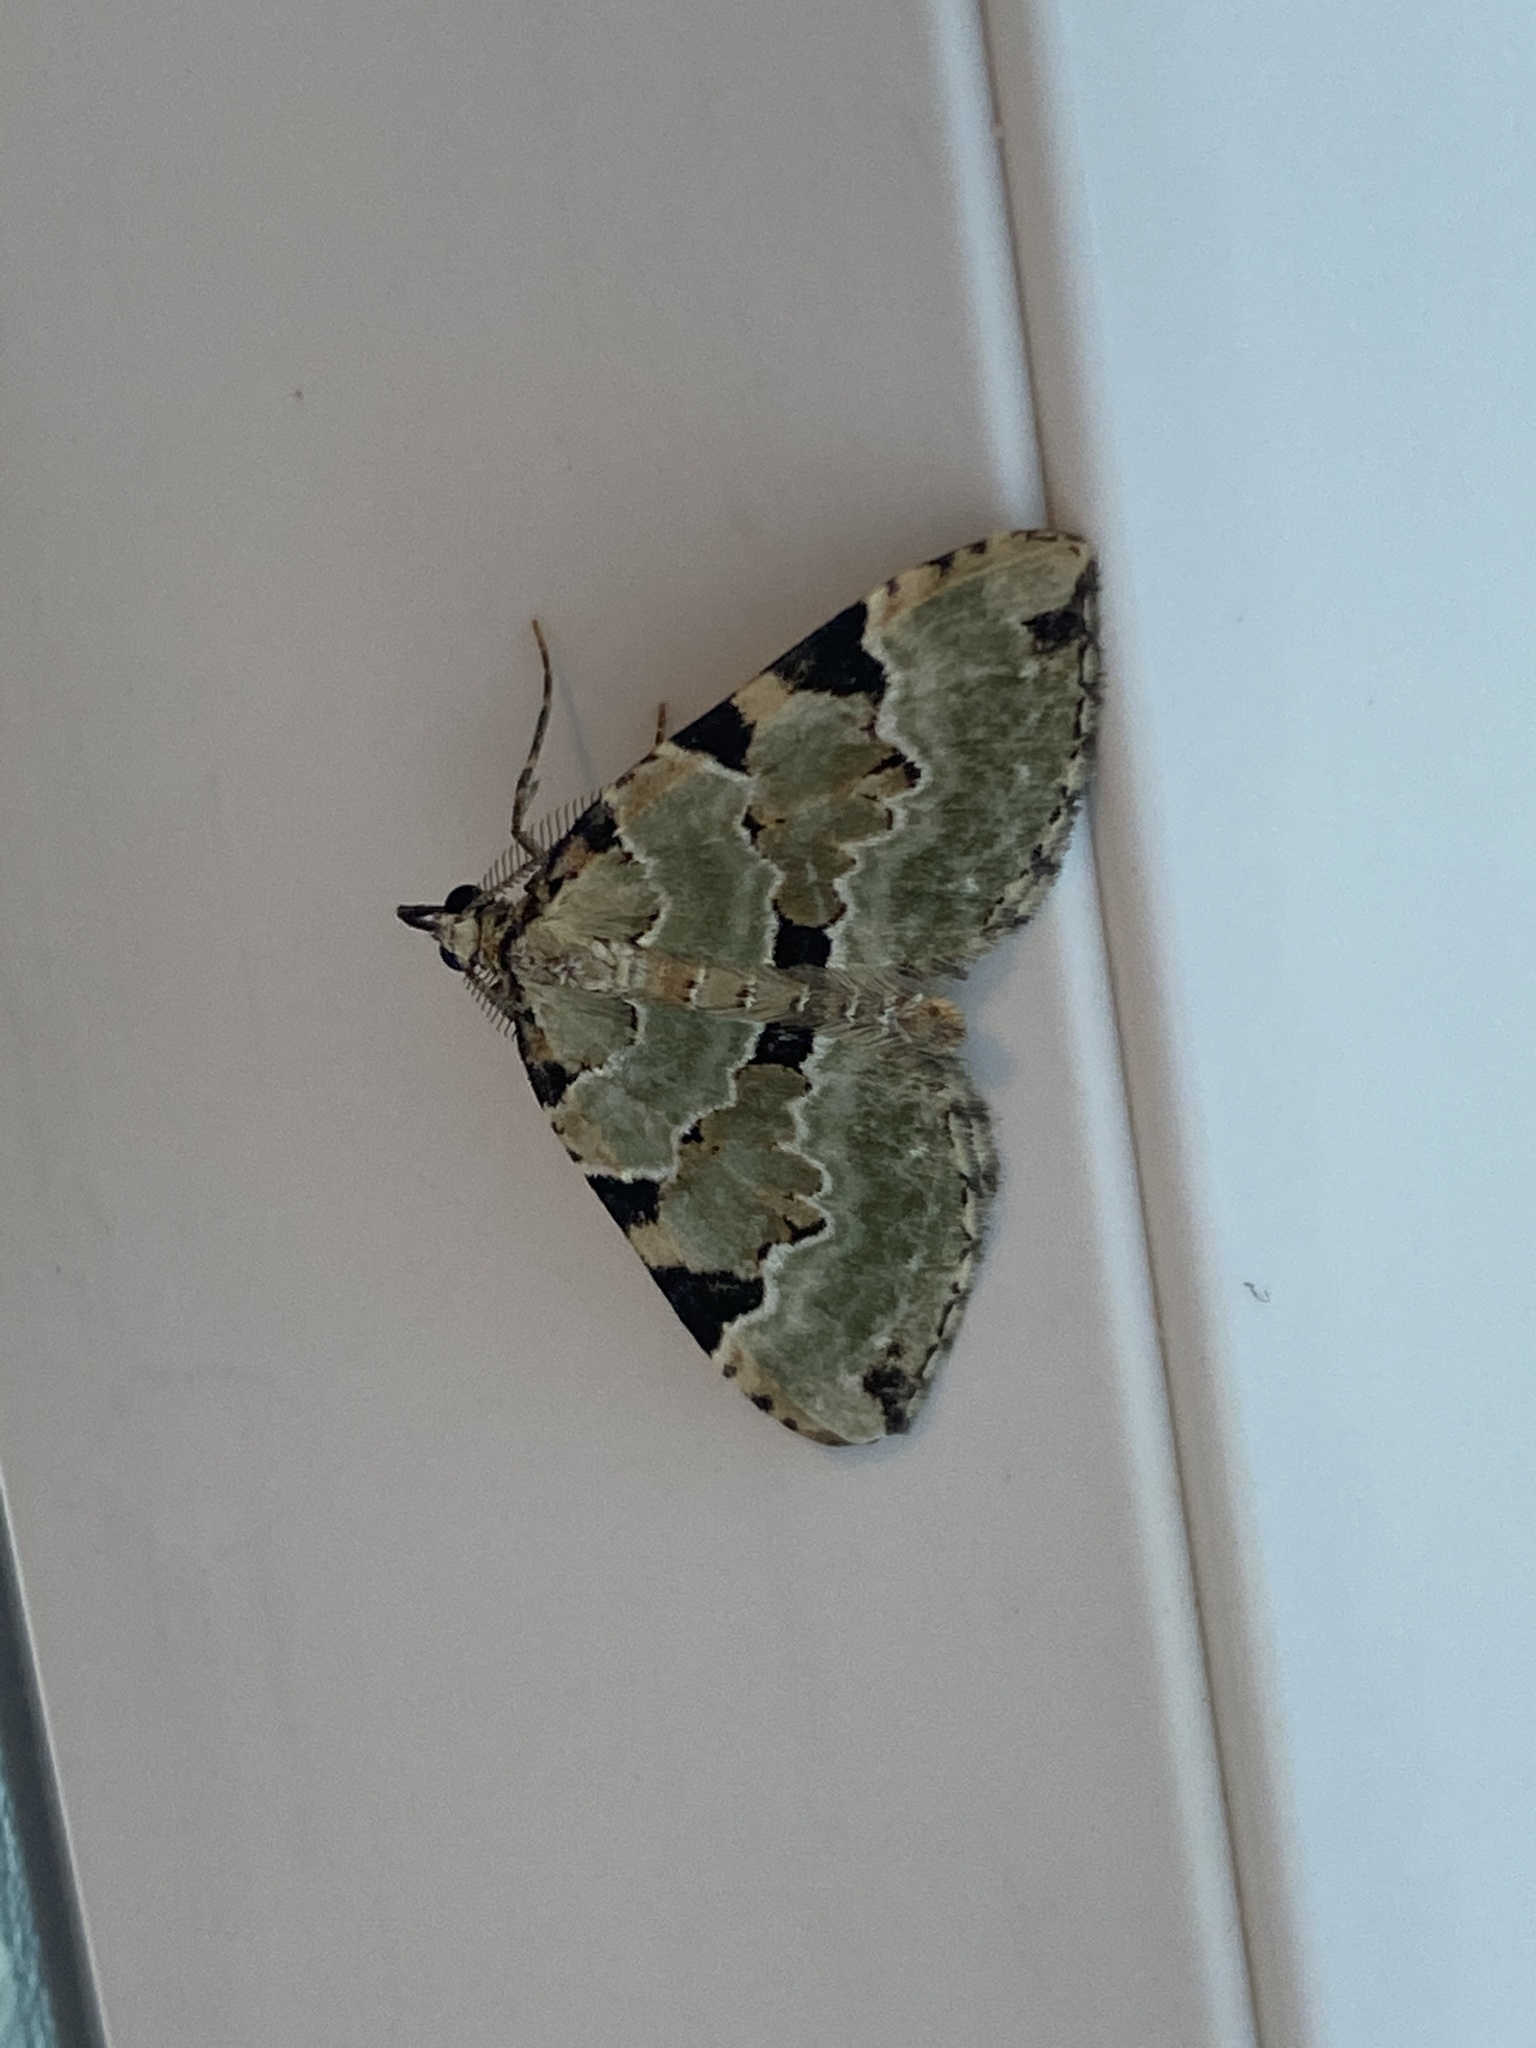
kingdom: Animalia
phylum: Arthropoda
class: Insecta
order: Lepidoptera
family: Geometridae
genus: Colostygia
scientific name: Colostygia pectinataria
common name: Green carpet
